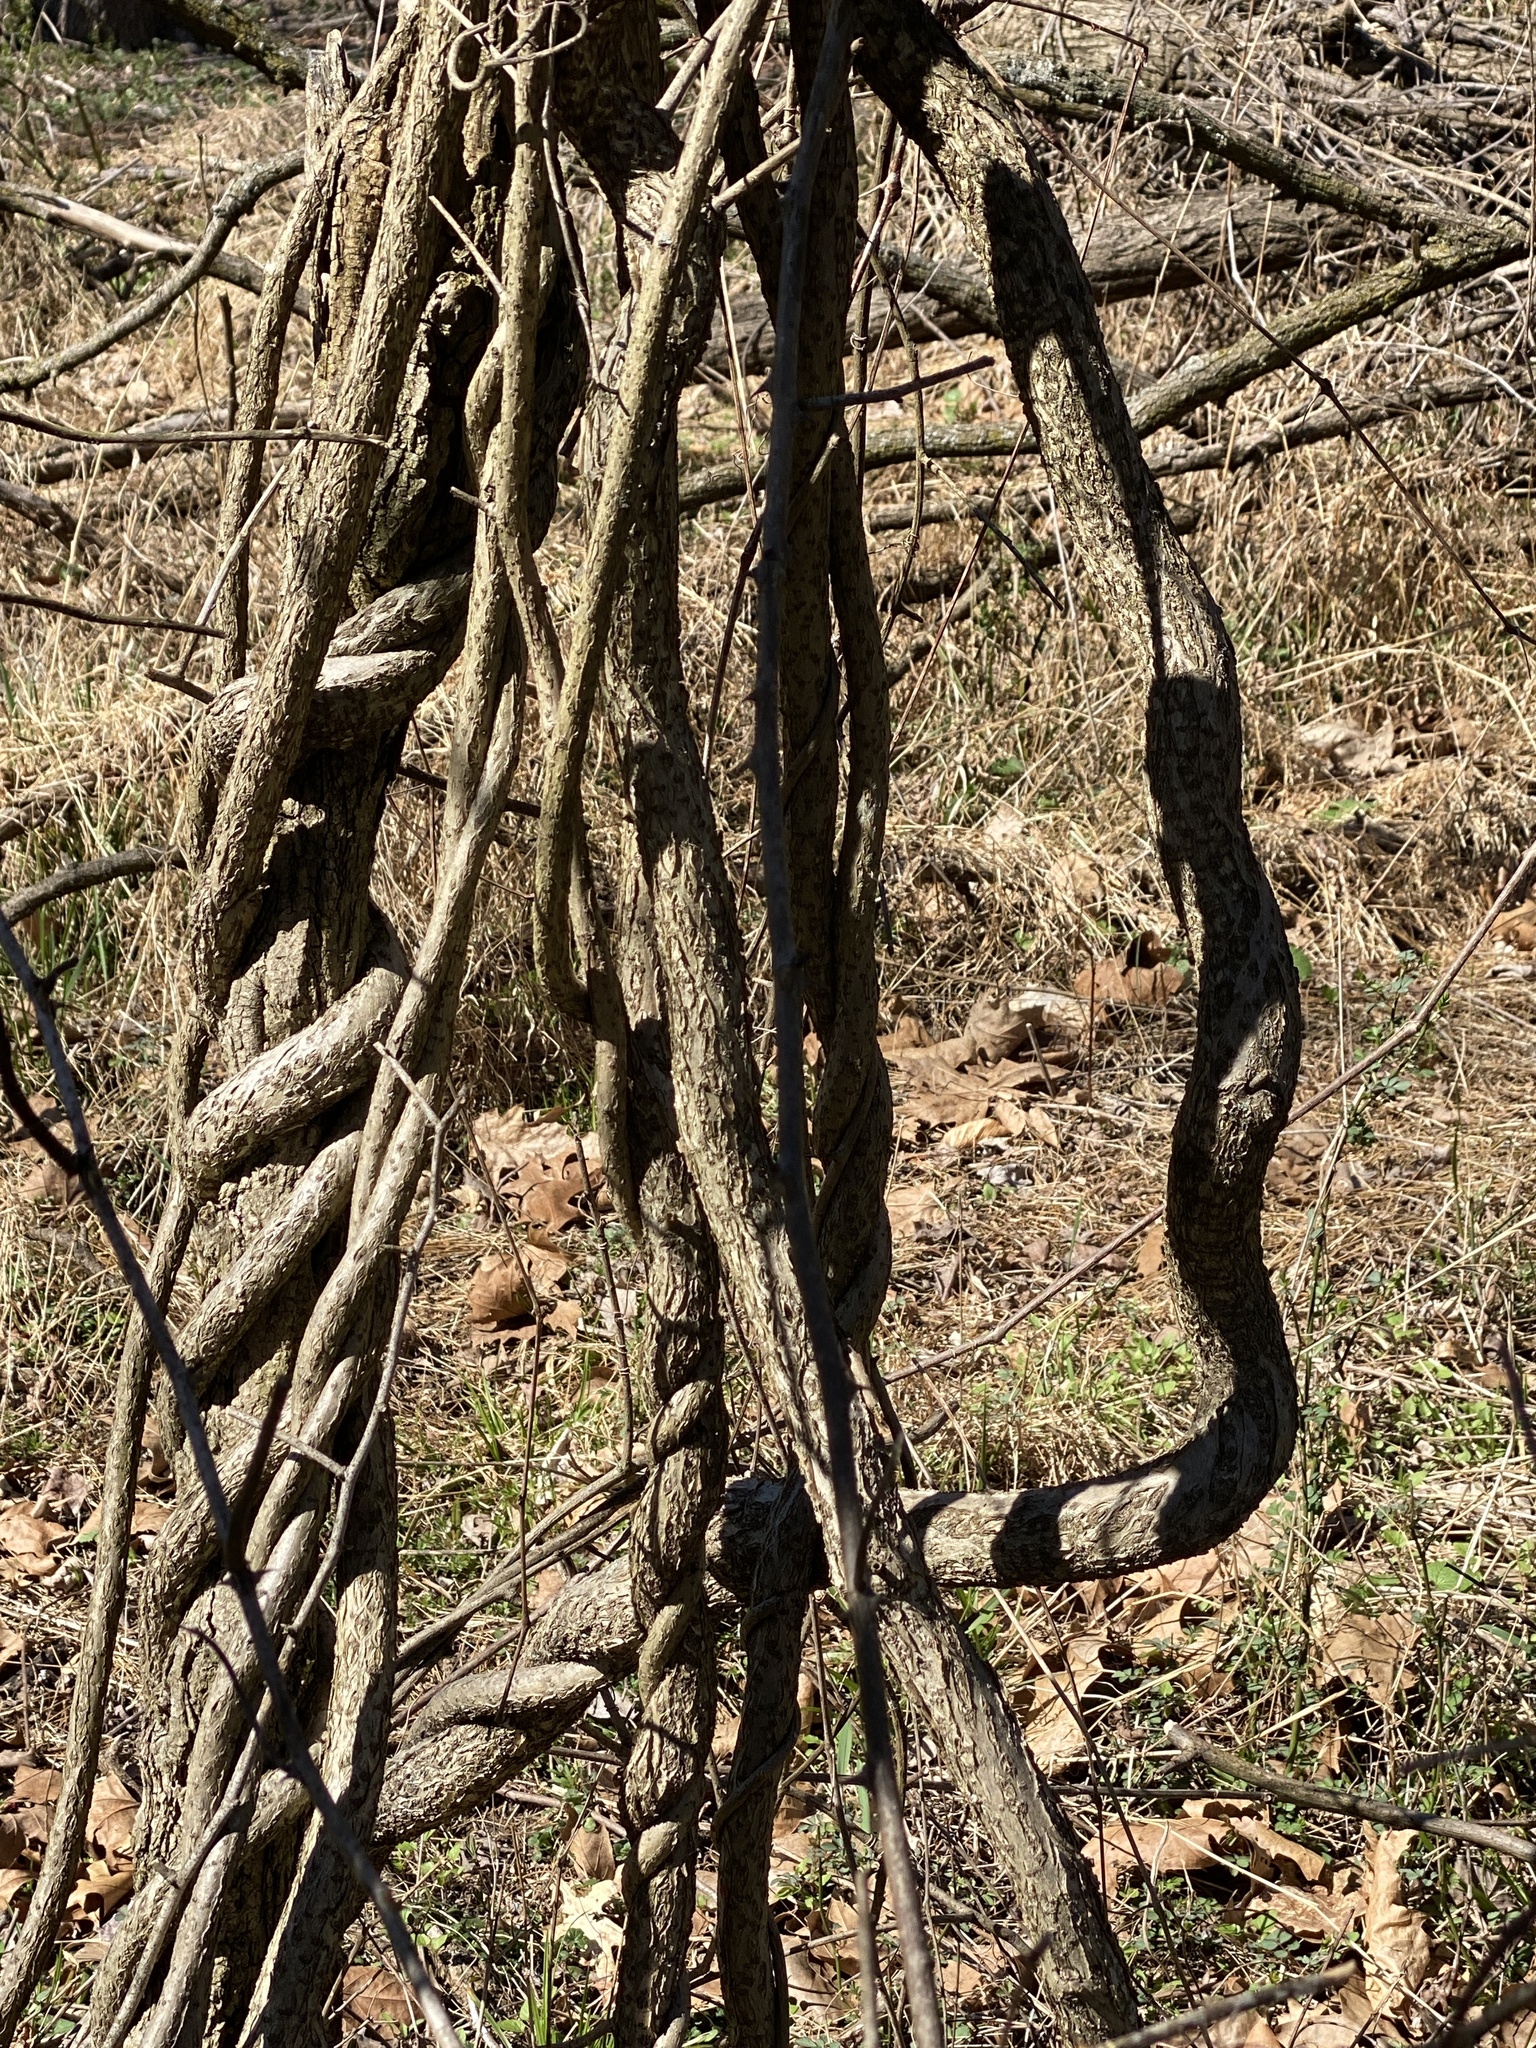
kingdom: Plantae
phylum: Tracheophyta
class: Magnoliopsida
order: Celastrales
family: Celastraceae
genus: Celastrus
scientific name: Celastrus orbiculatus
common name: Oriental bittersweet
